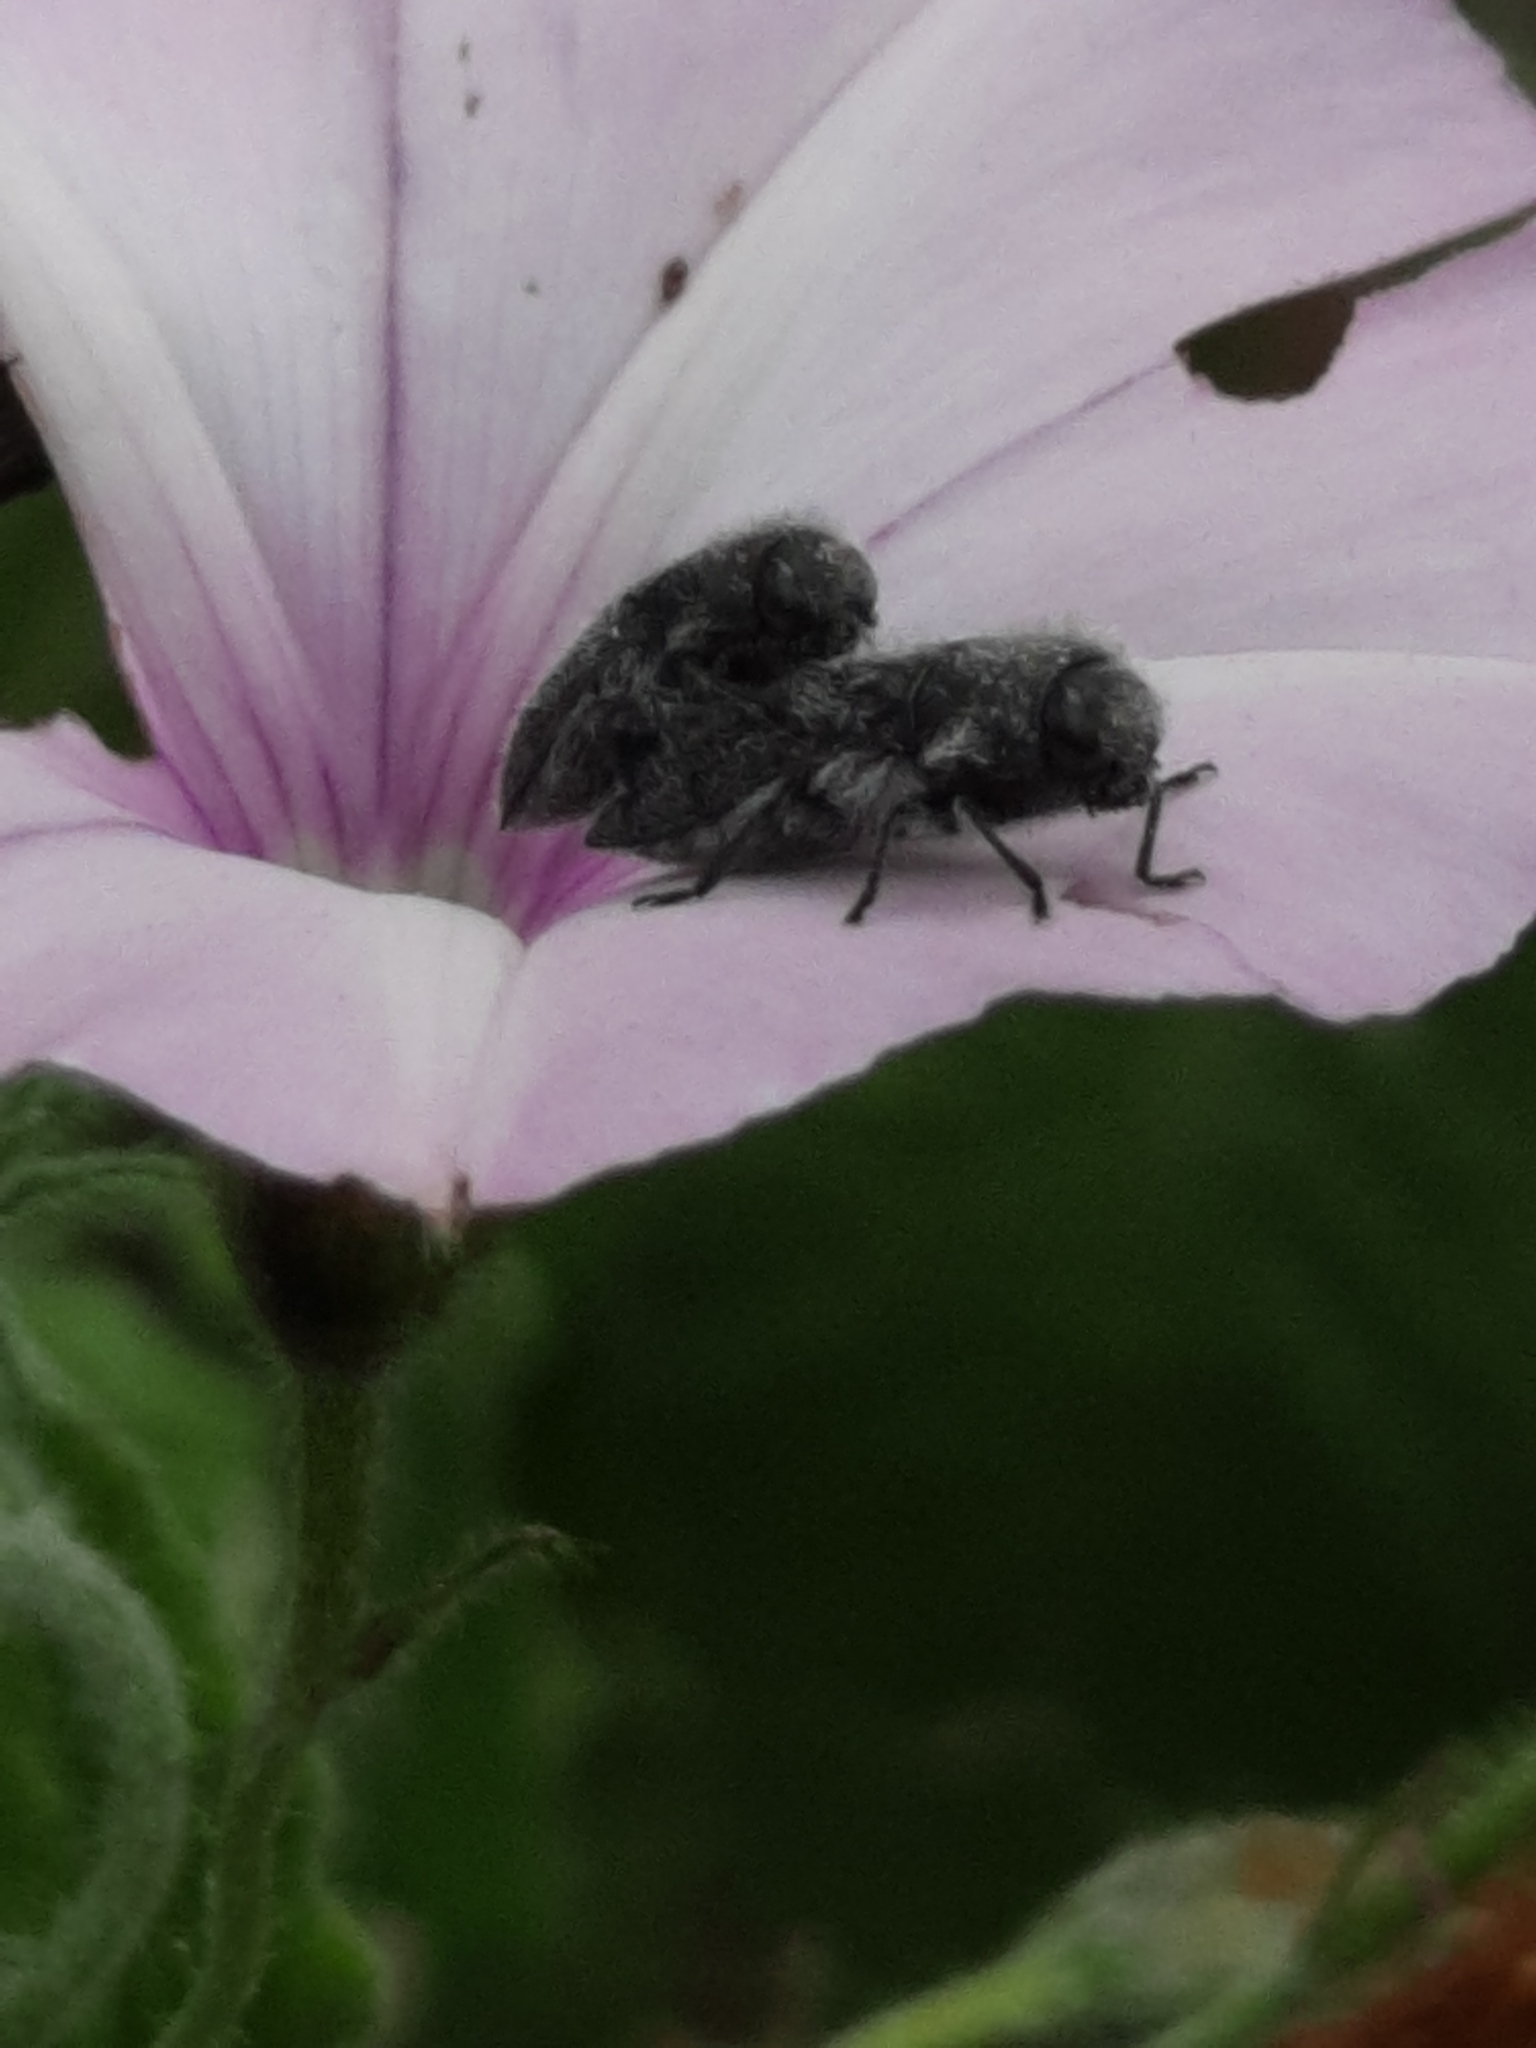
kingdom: Plantae
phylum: Tracheophyta
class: Magnoliopsida
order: Solanales
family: Convolvulaceae
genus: Convolvulus
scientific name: Convolvulus althaeoides
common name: Mallow bindweed
